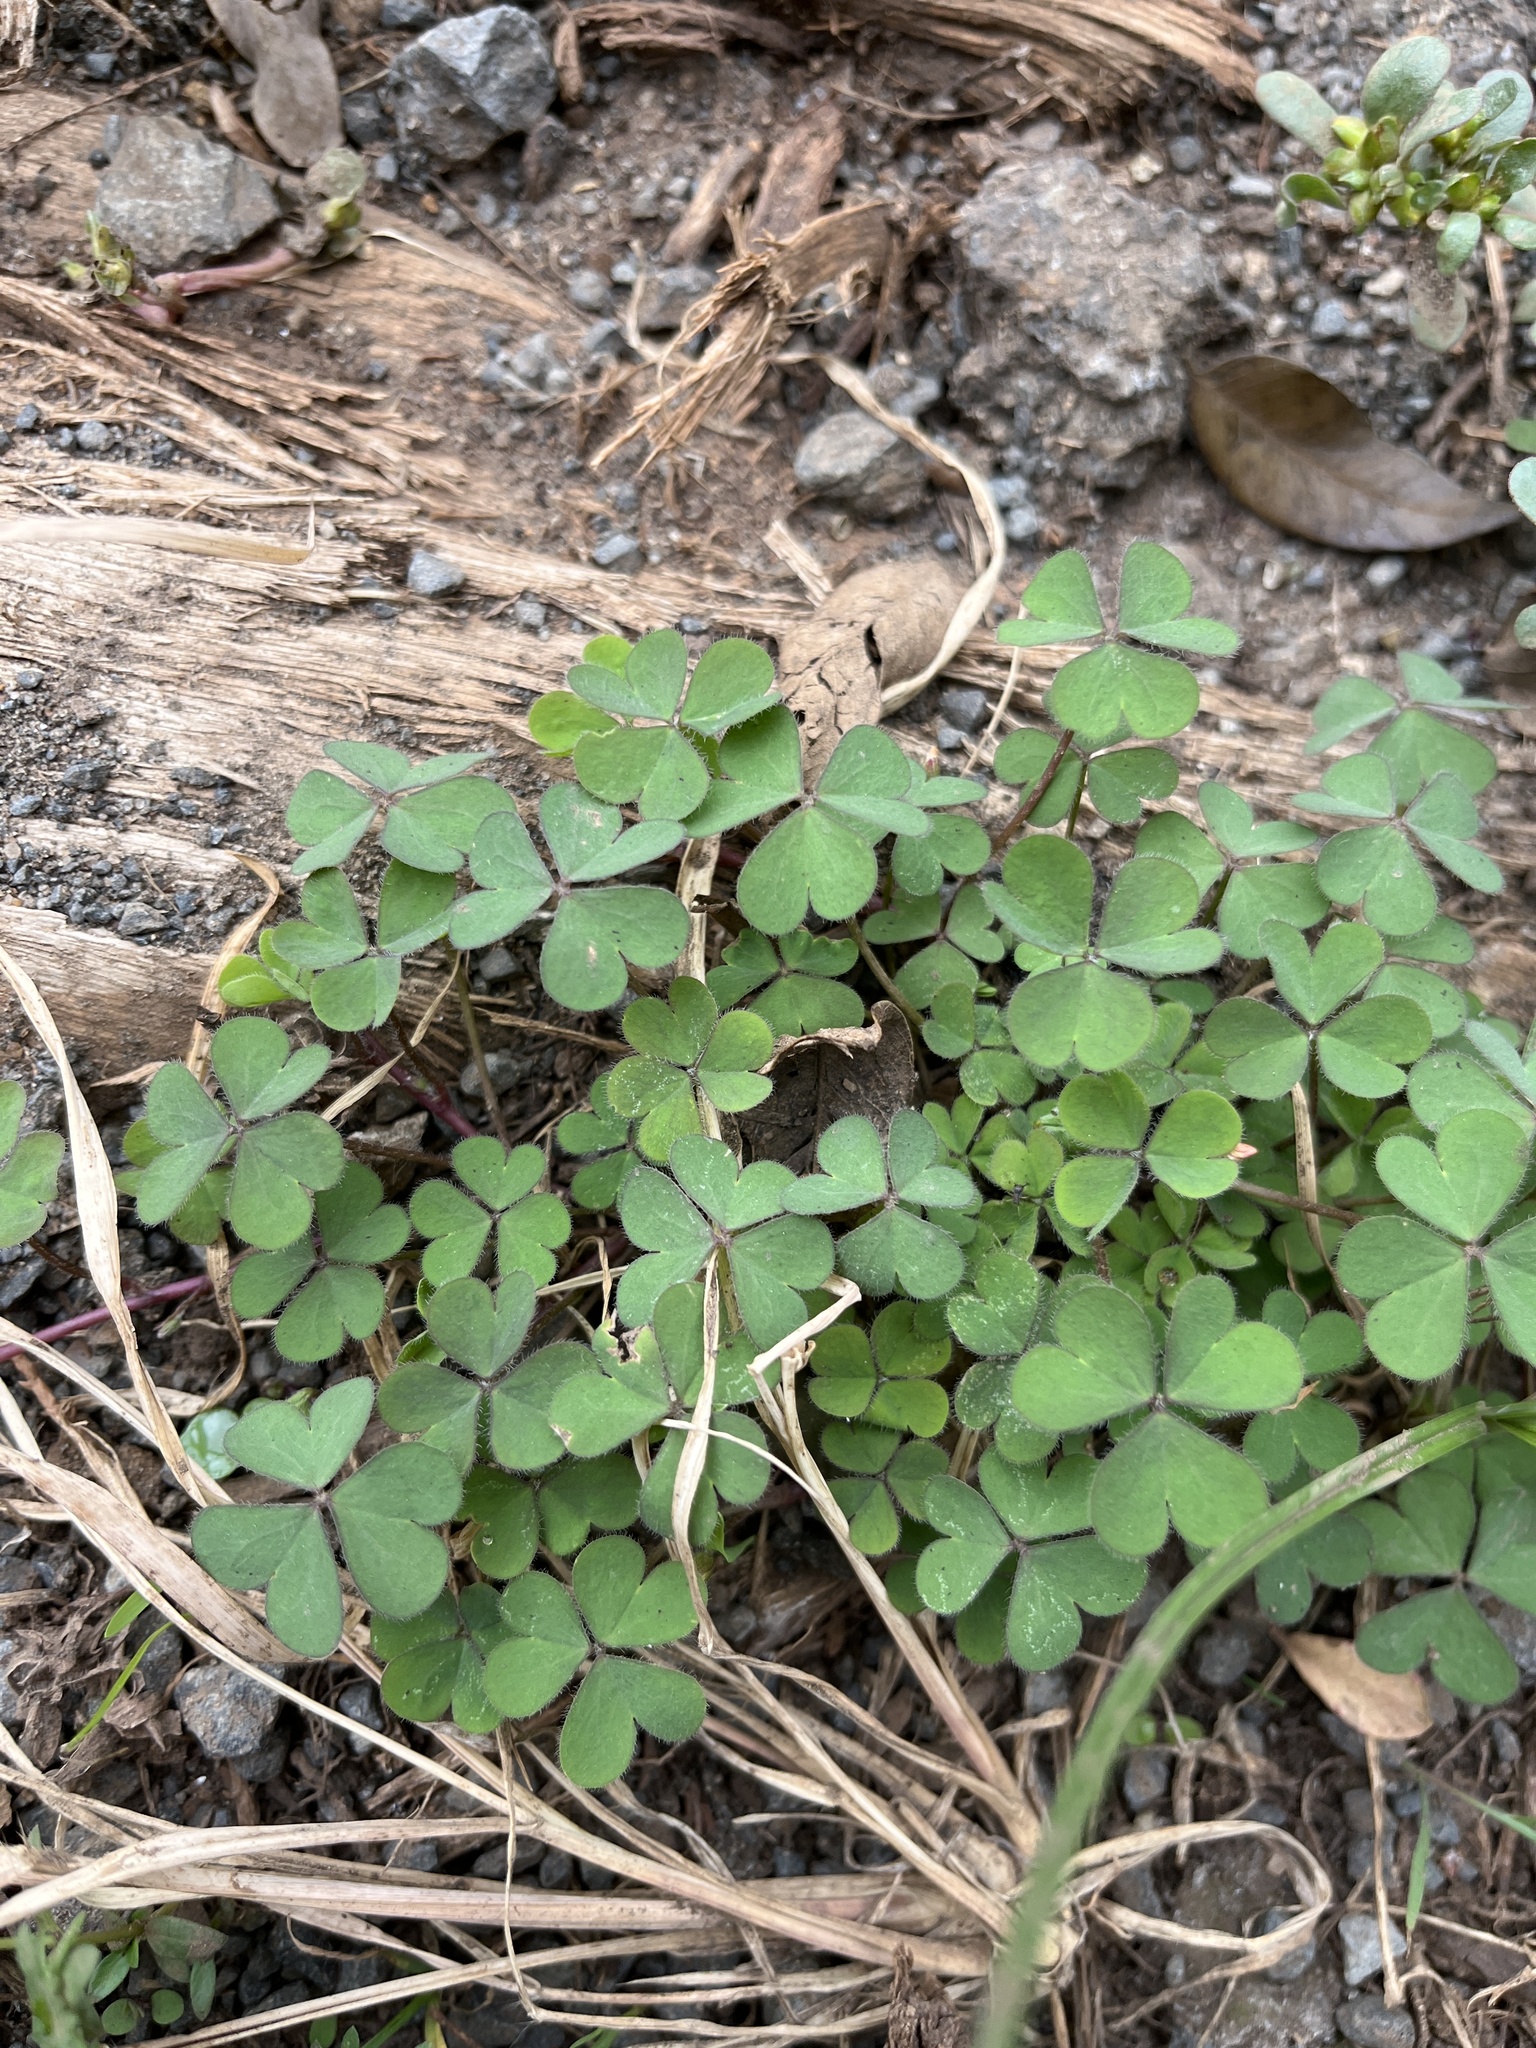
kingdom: Plantae
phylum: Tracheophyta
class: Magnoliopsida
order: Oxalidales
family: Oxalidaceae
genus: Oxalis
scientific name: Oxalis corniculata
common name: Procumbent yellow-sorrel
